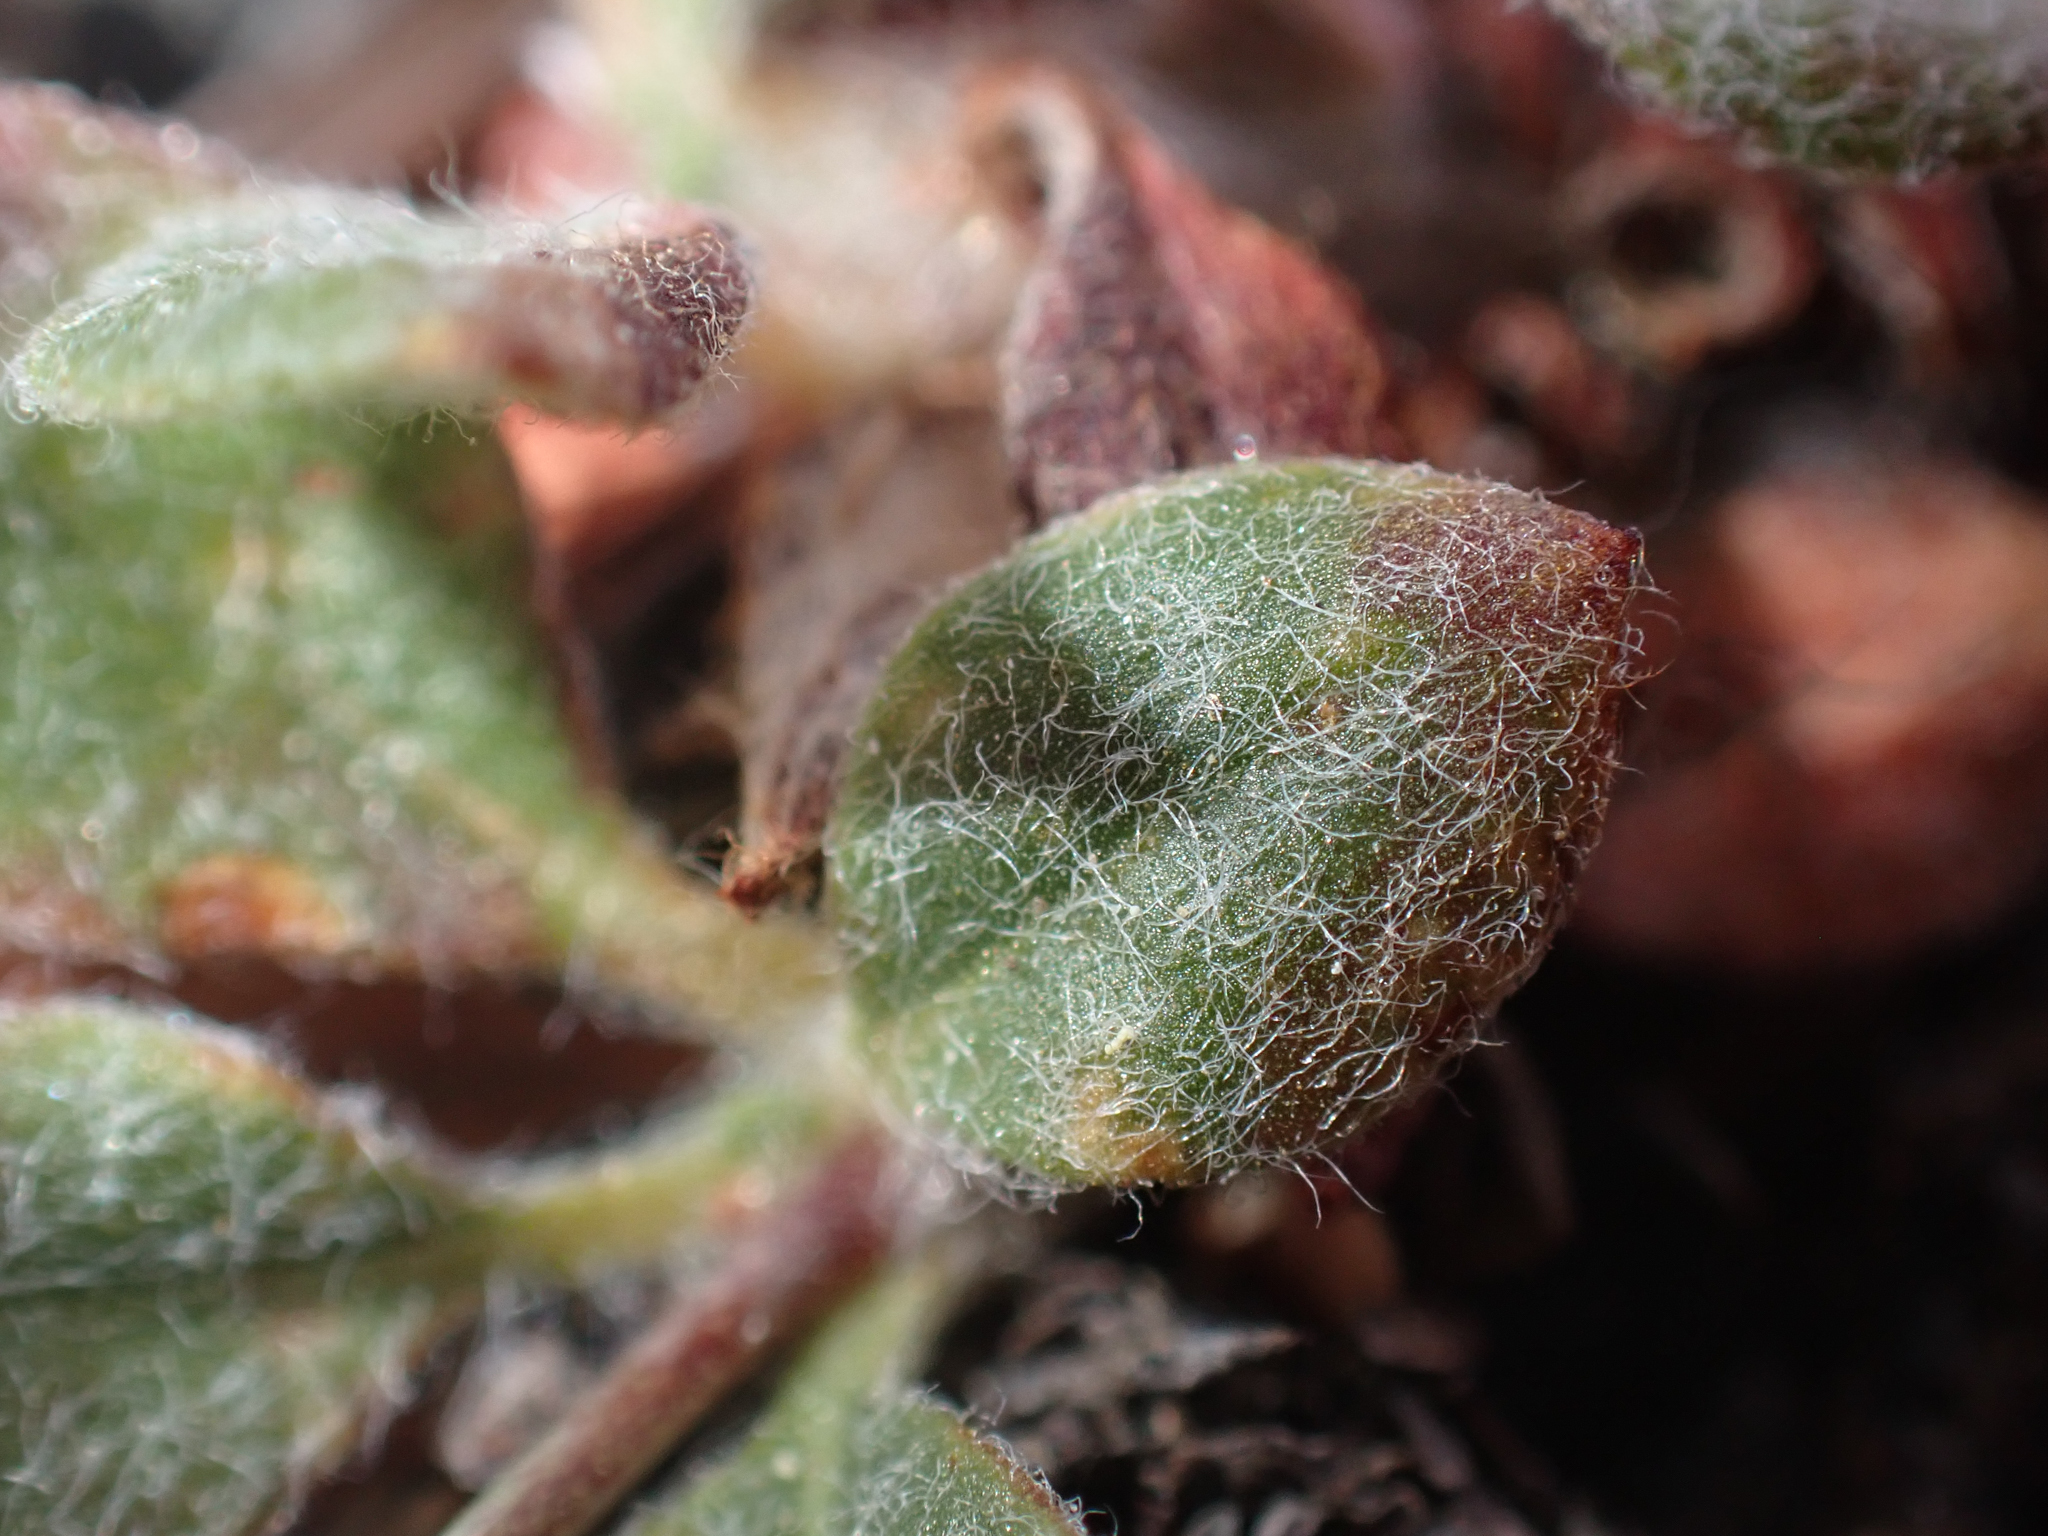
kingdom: Plantae
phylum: Tracheophyta
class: Magnoliopsida
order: Caryophyllales
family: Polygonaceae
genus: Eriogonum
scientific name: Eriogonum breedlovei
